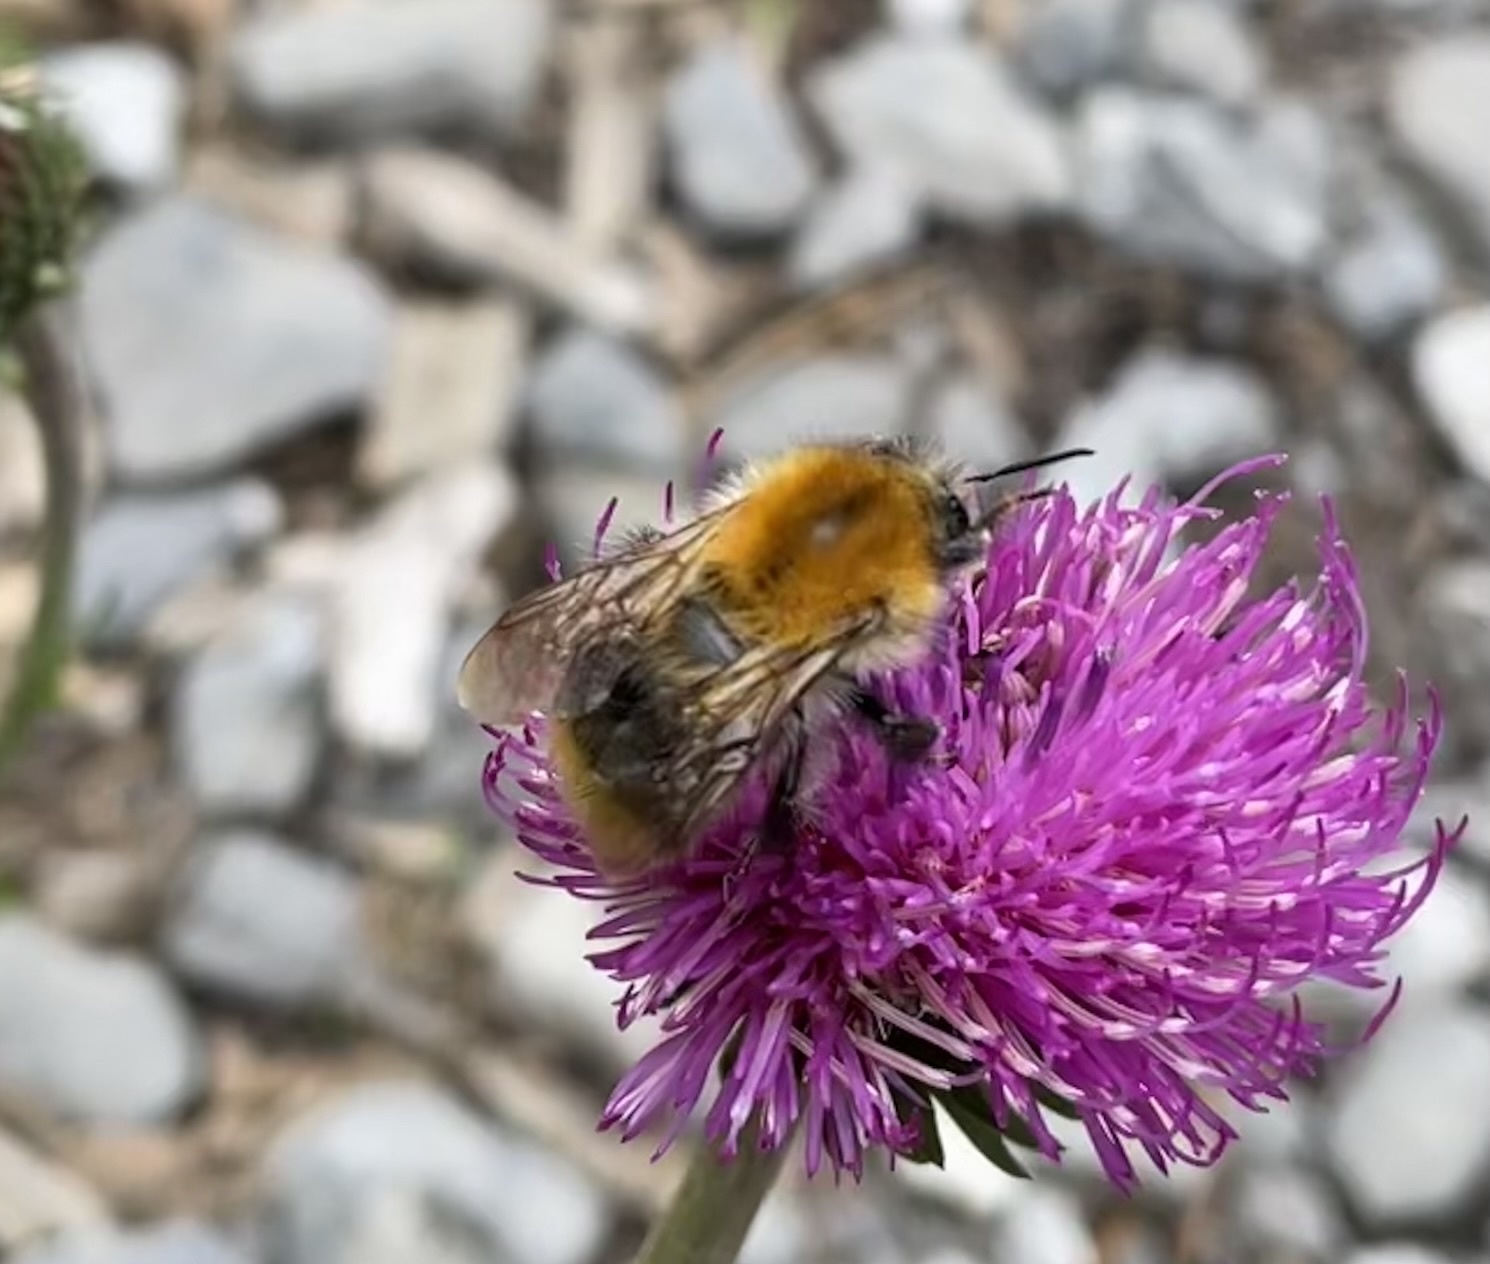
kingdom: Animalia
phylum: Arthropoda
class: Insecta
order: Hymenoptera
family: Apidae
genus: Bombus
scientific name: Bombus pascuorum
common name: Common carder bee
